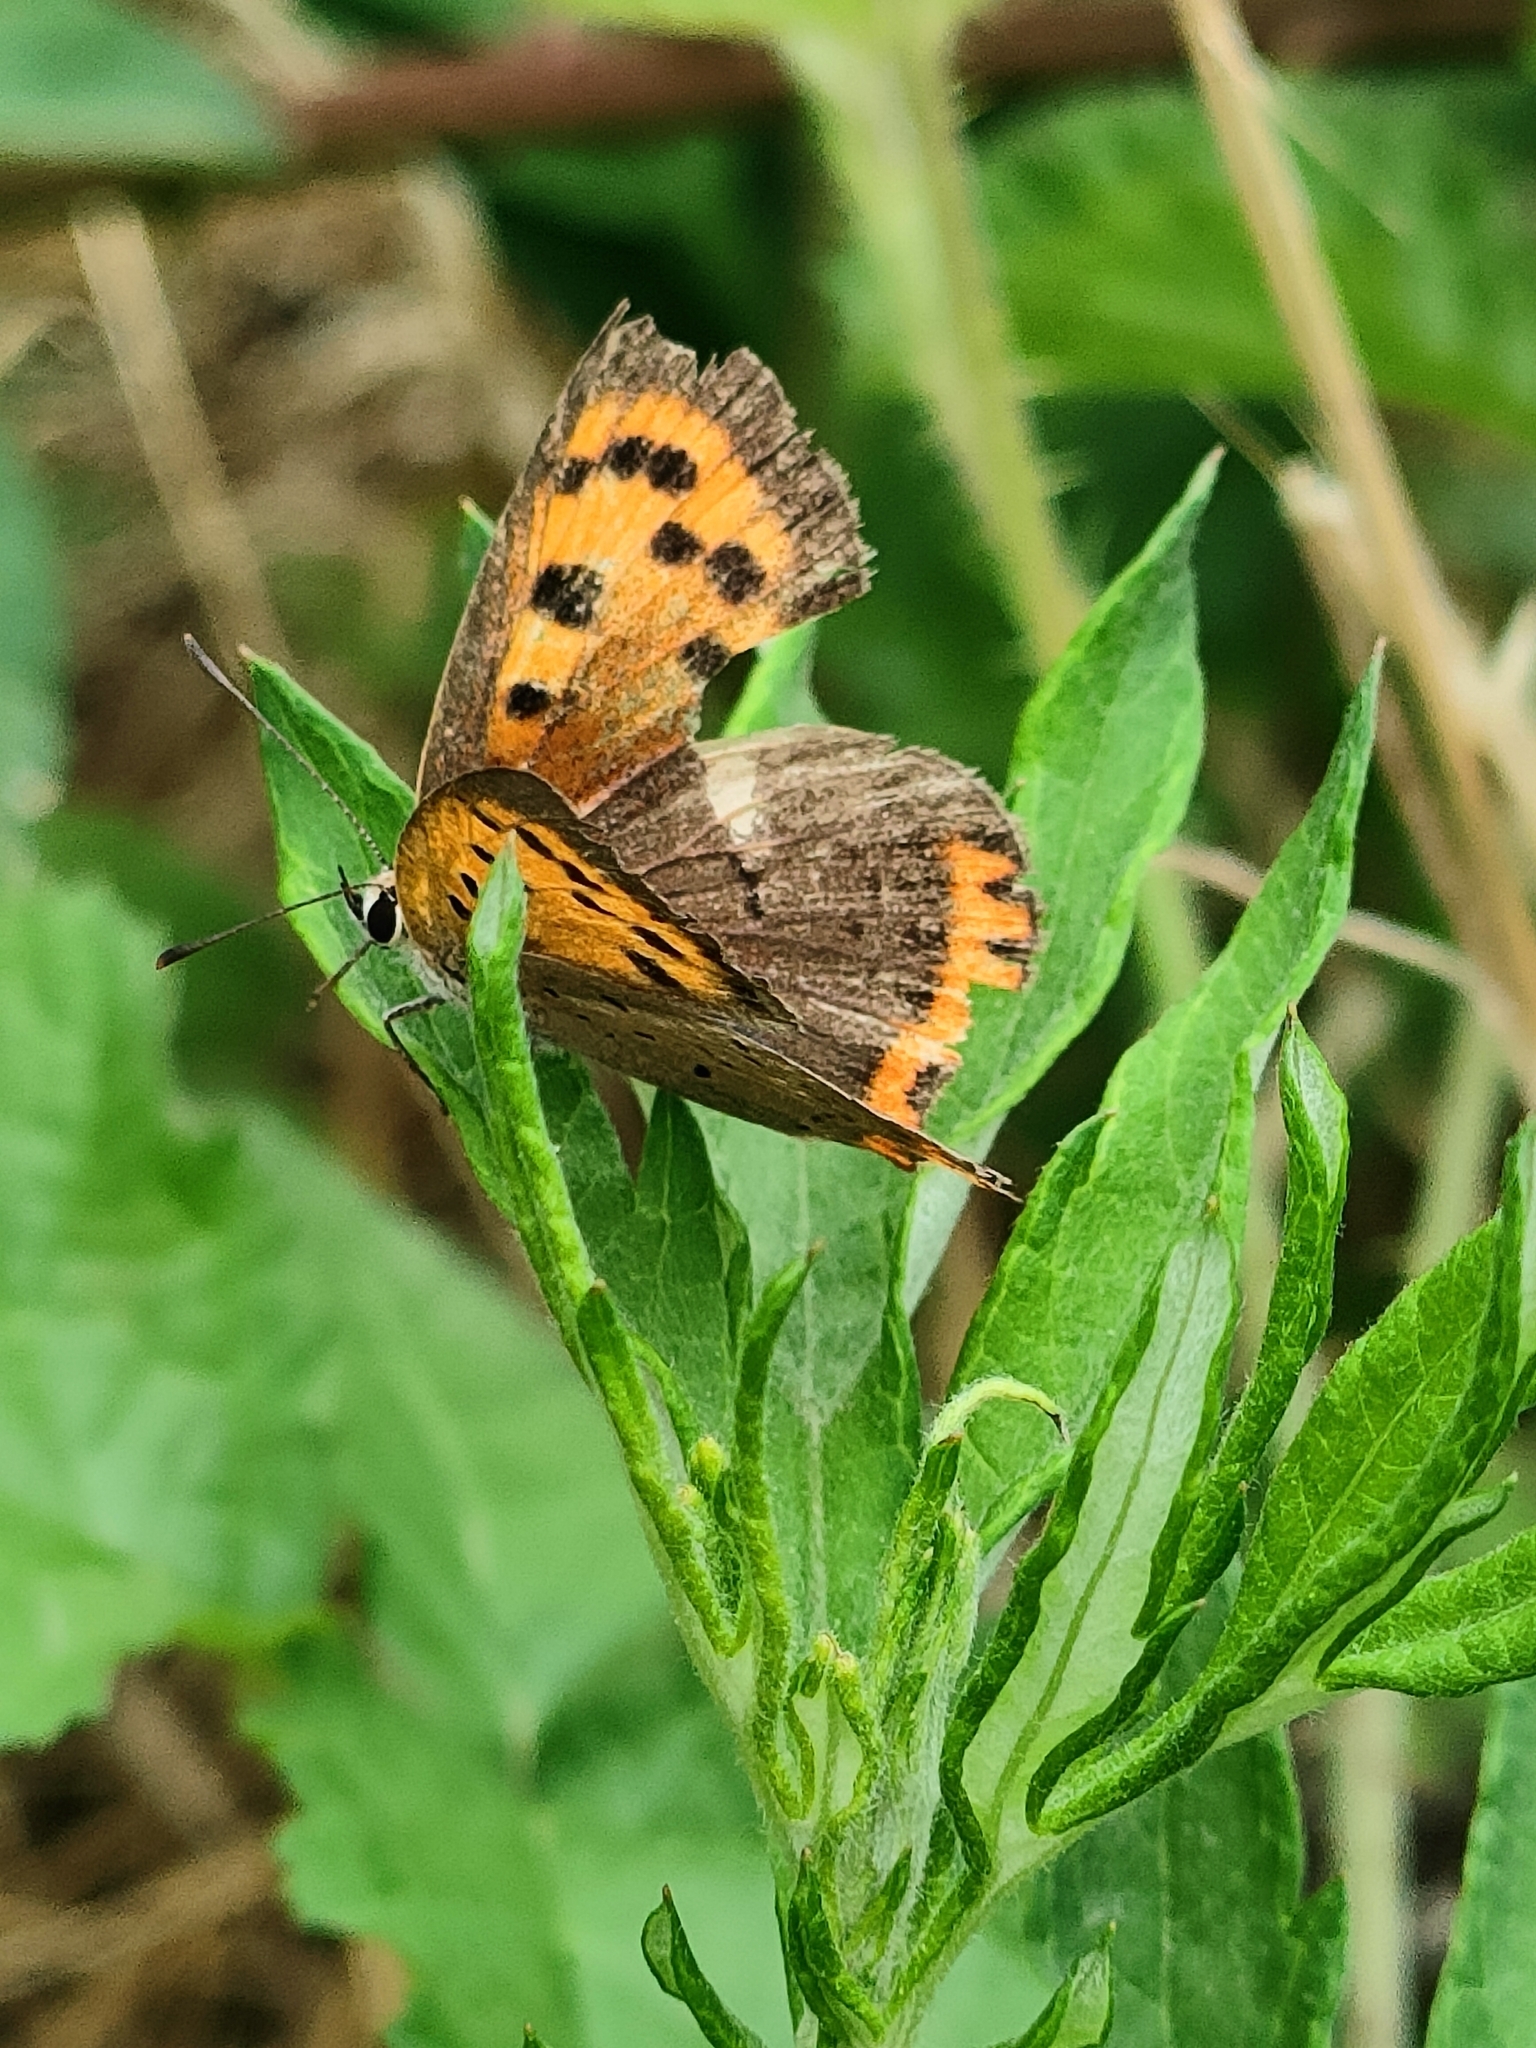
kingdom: Animalia
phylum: Arthropoda
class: Insecta
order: Lepidoptera
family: Lycaenidae
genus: Lycaena
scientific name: Lycaena phlaeas
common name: Small copper
